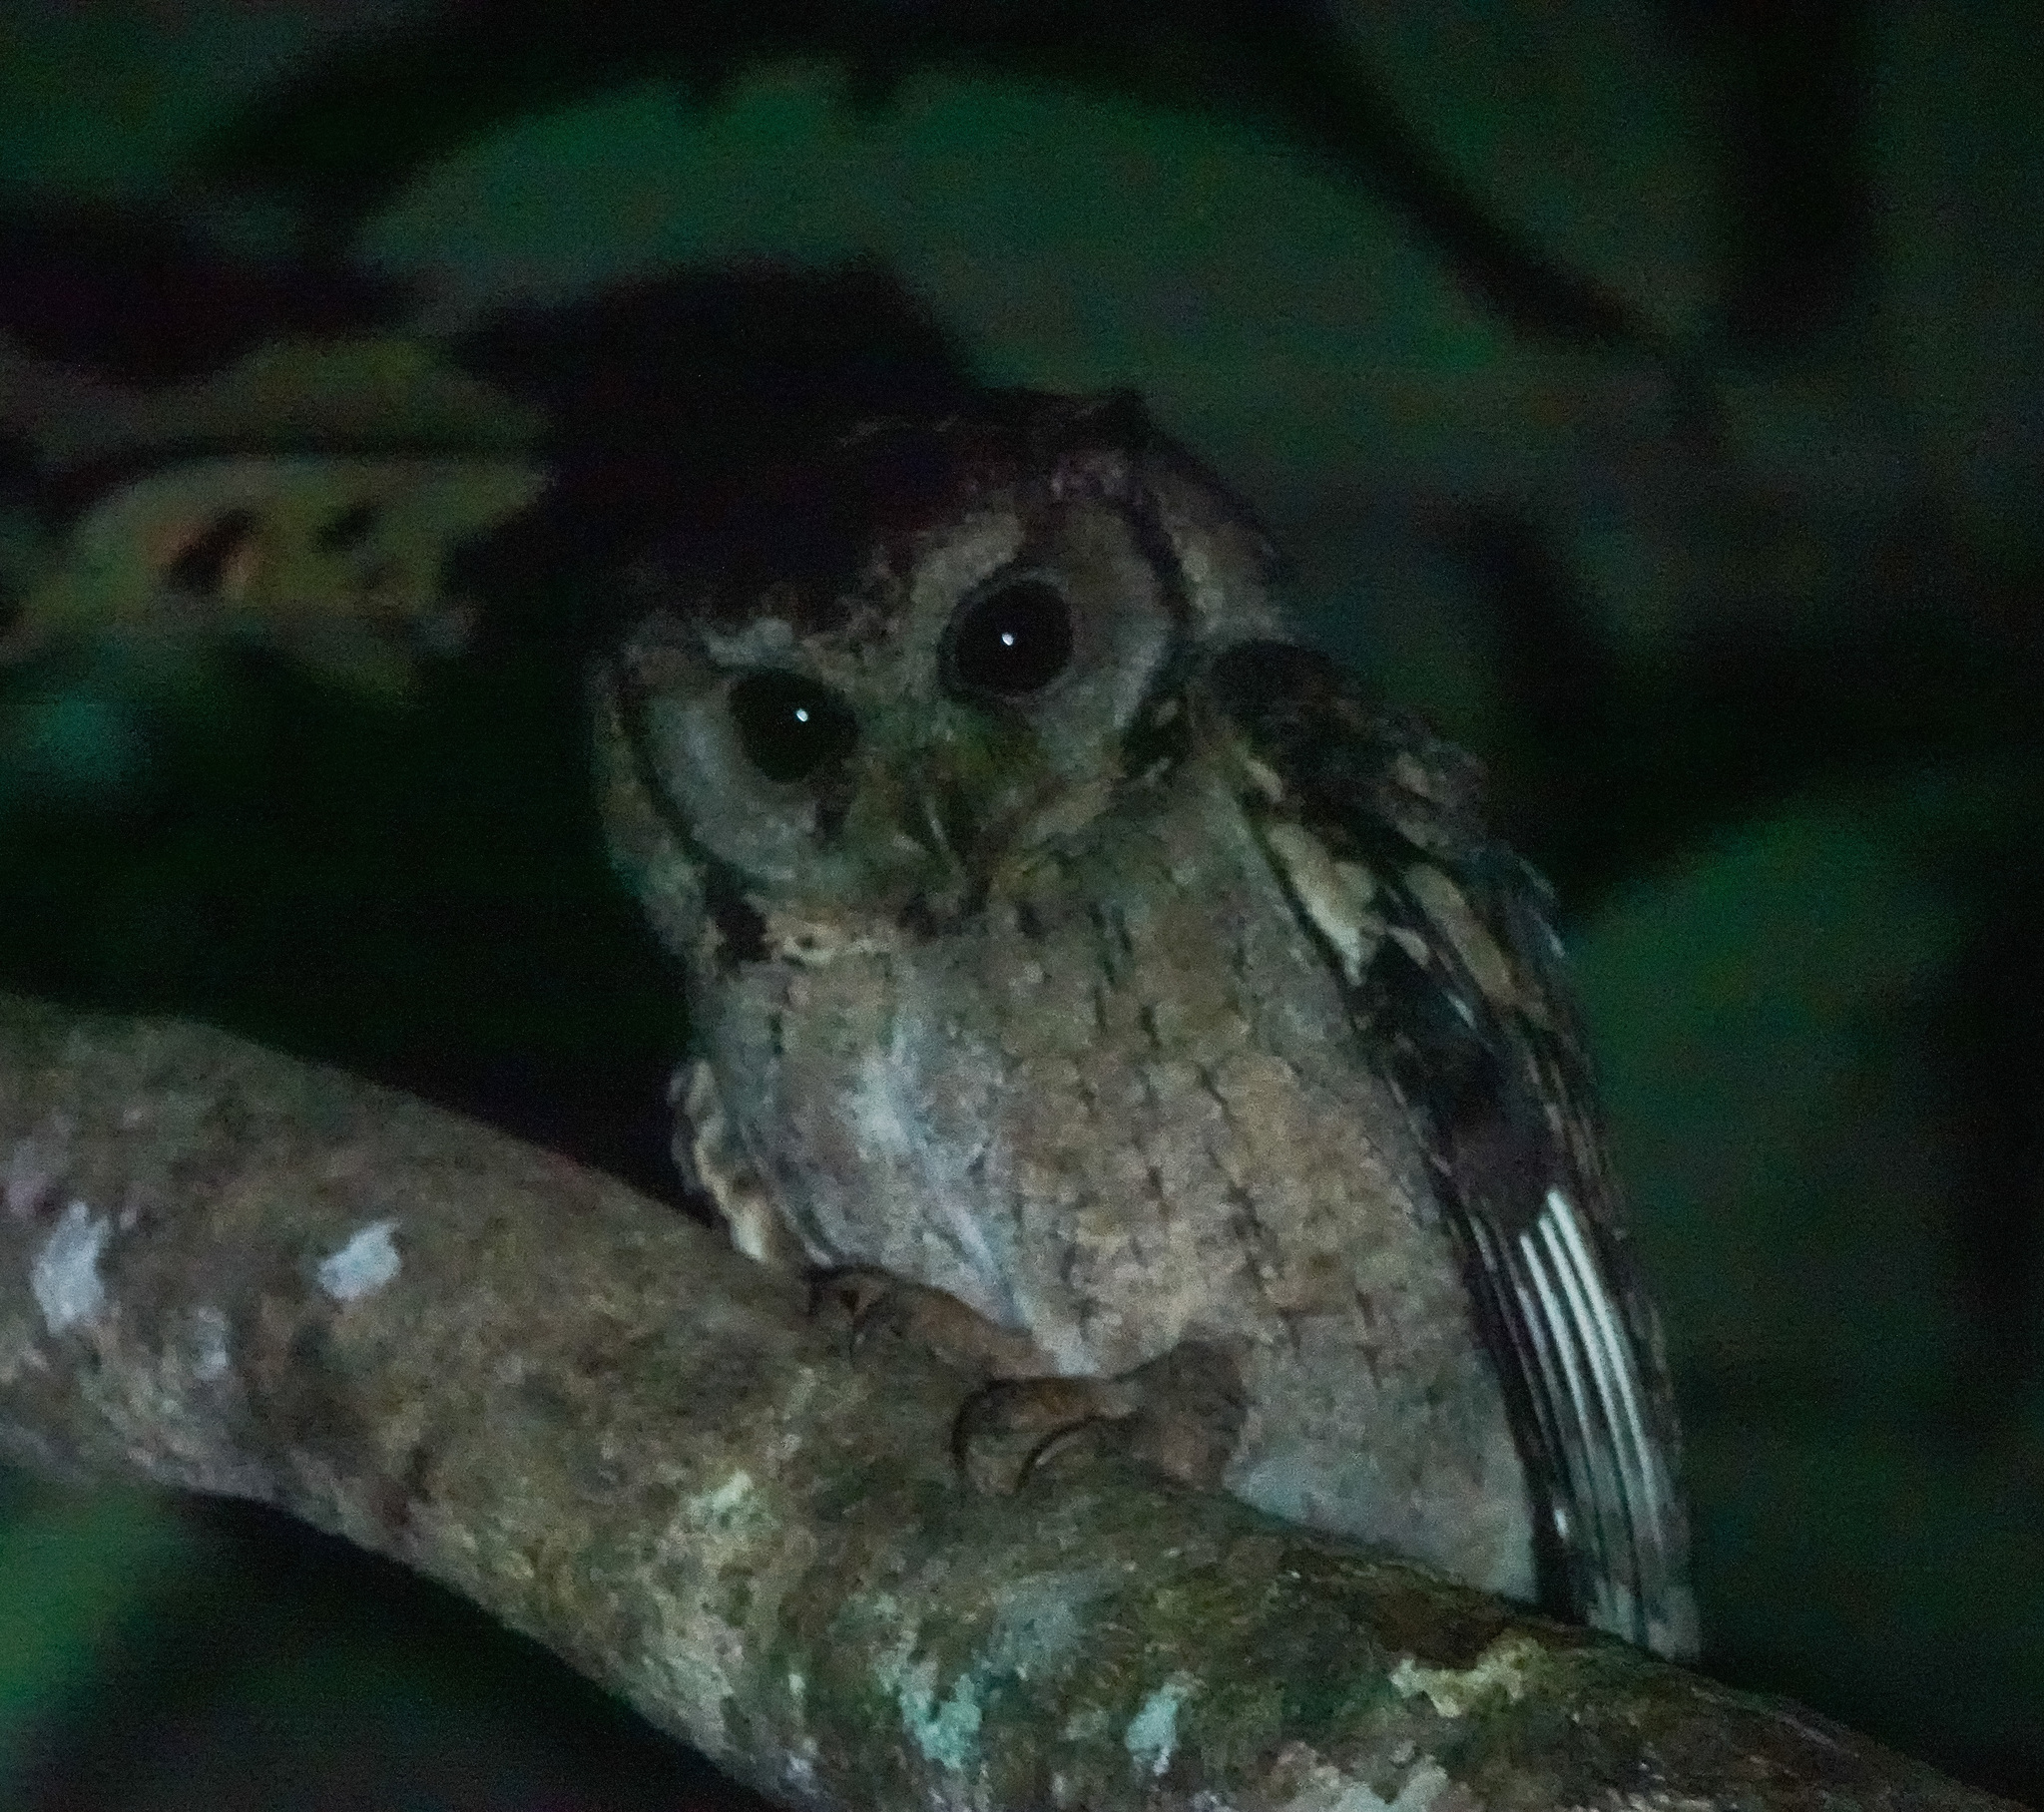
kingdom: Animalia
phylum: Chordata
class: Aves
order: Strigiformes
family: Strigidae
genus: Otus
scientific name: Otus lettia
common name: Collared scops owl
